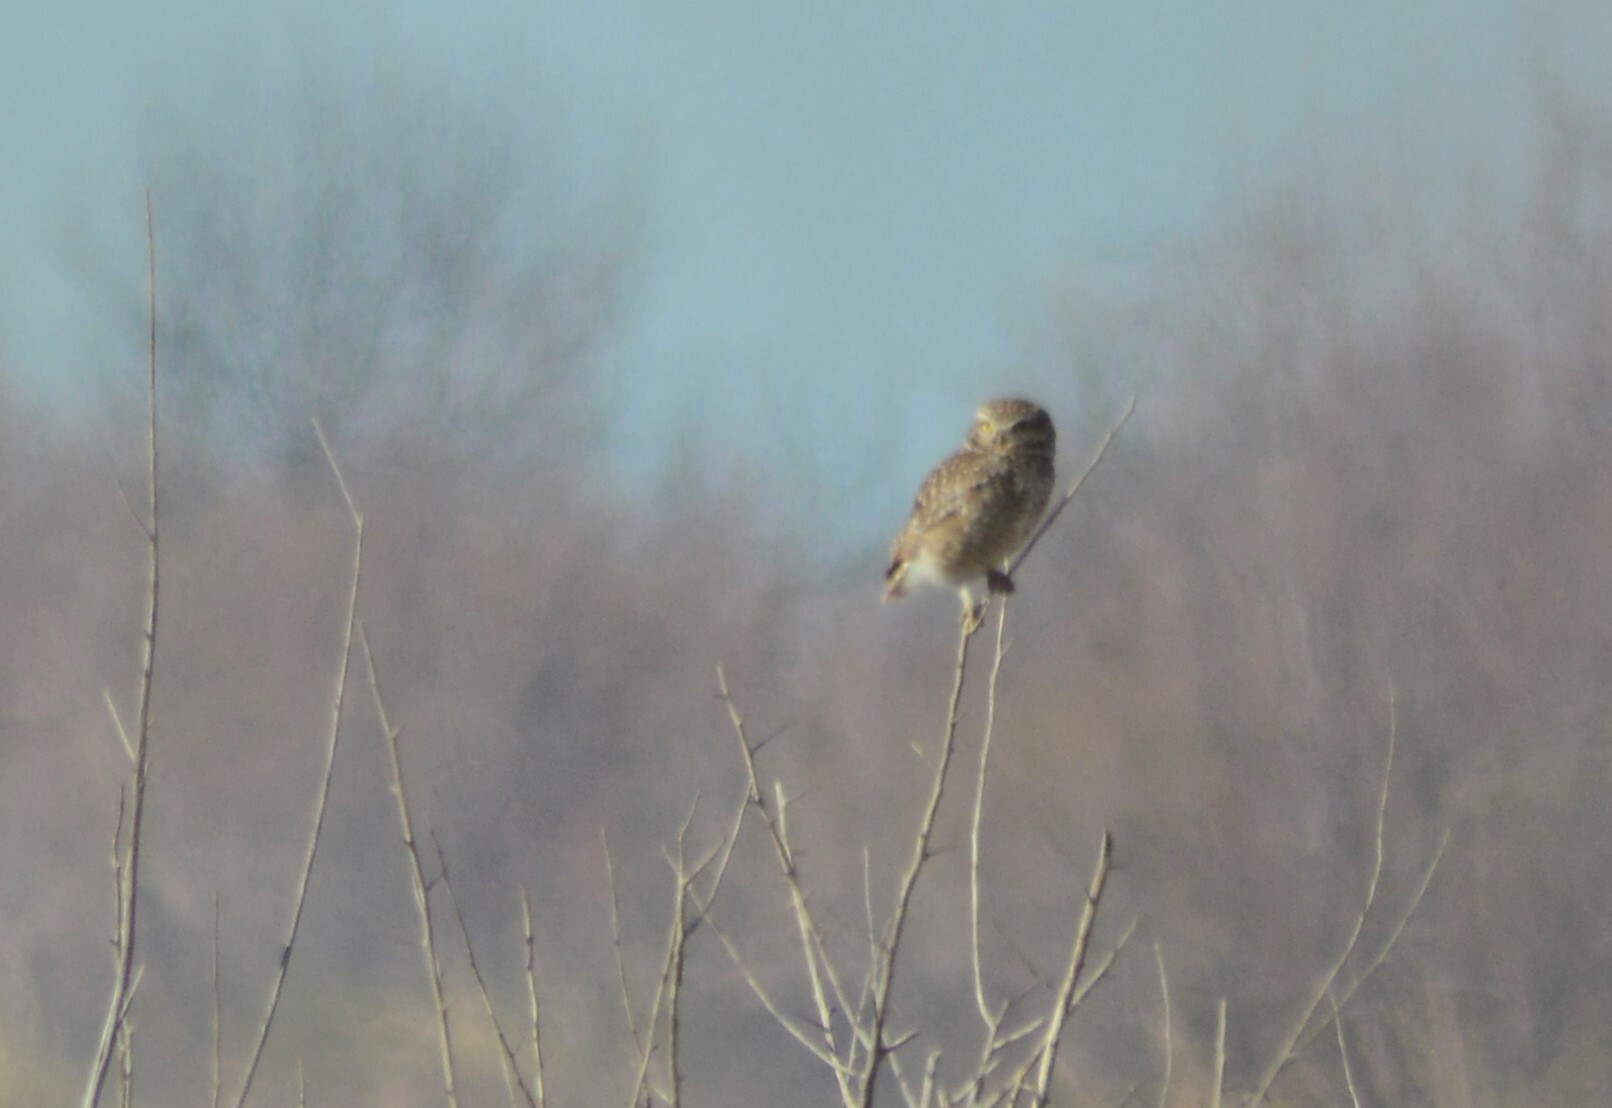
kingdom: Animalia
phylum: Chordata
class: Aves
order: Strigiformes
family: Strigidae
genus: Athene
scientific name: Athene cunicularia
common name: Burrowing owl
